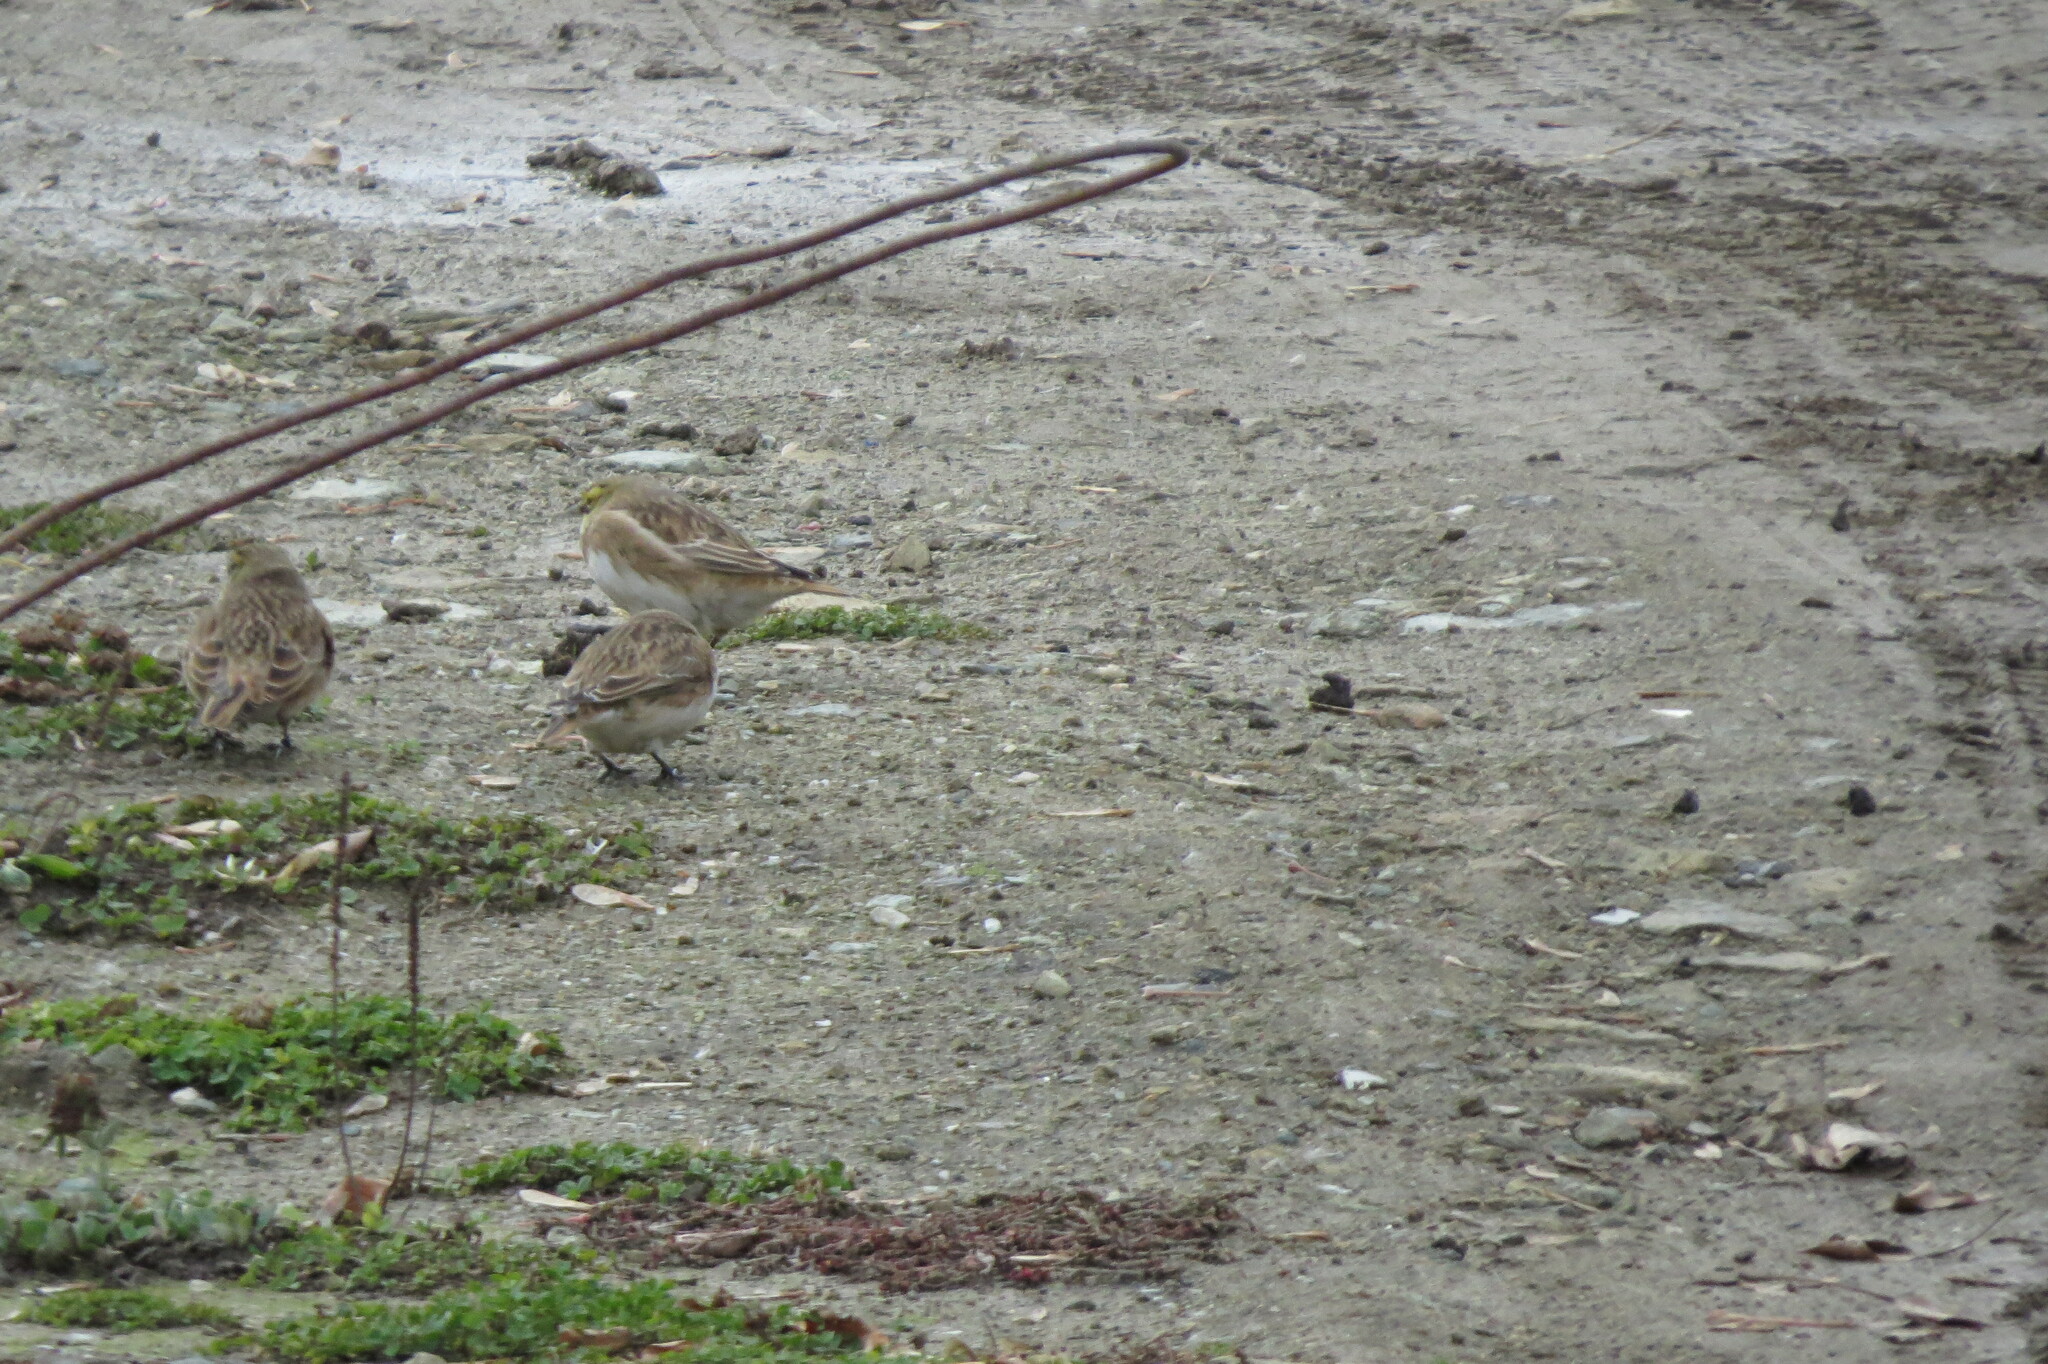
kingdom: Animalia
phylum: Chordata
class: Aves
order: Passeriformes
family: Alaudidae
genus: Eremophila
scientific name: Eremophila alpestris
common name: Horned lark
